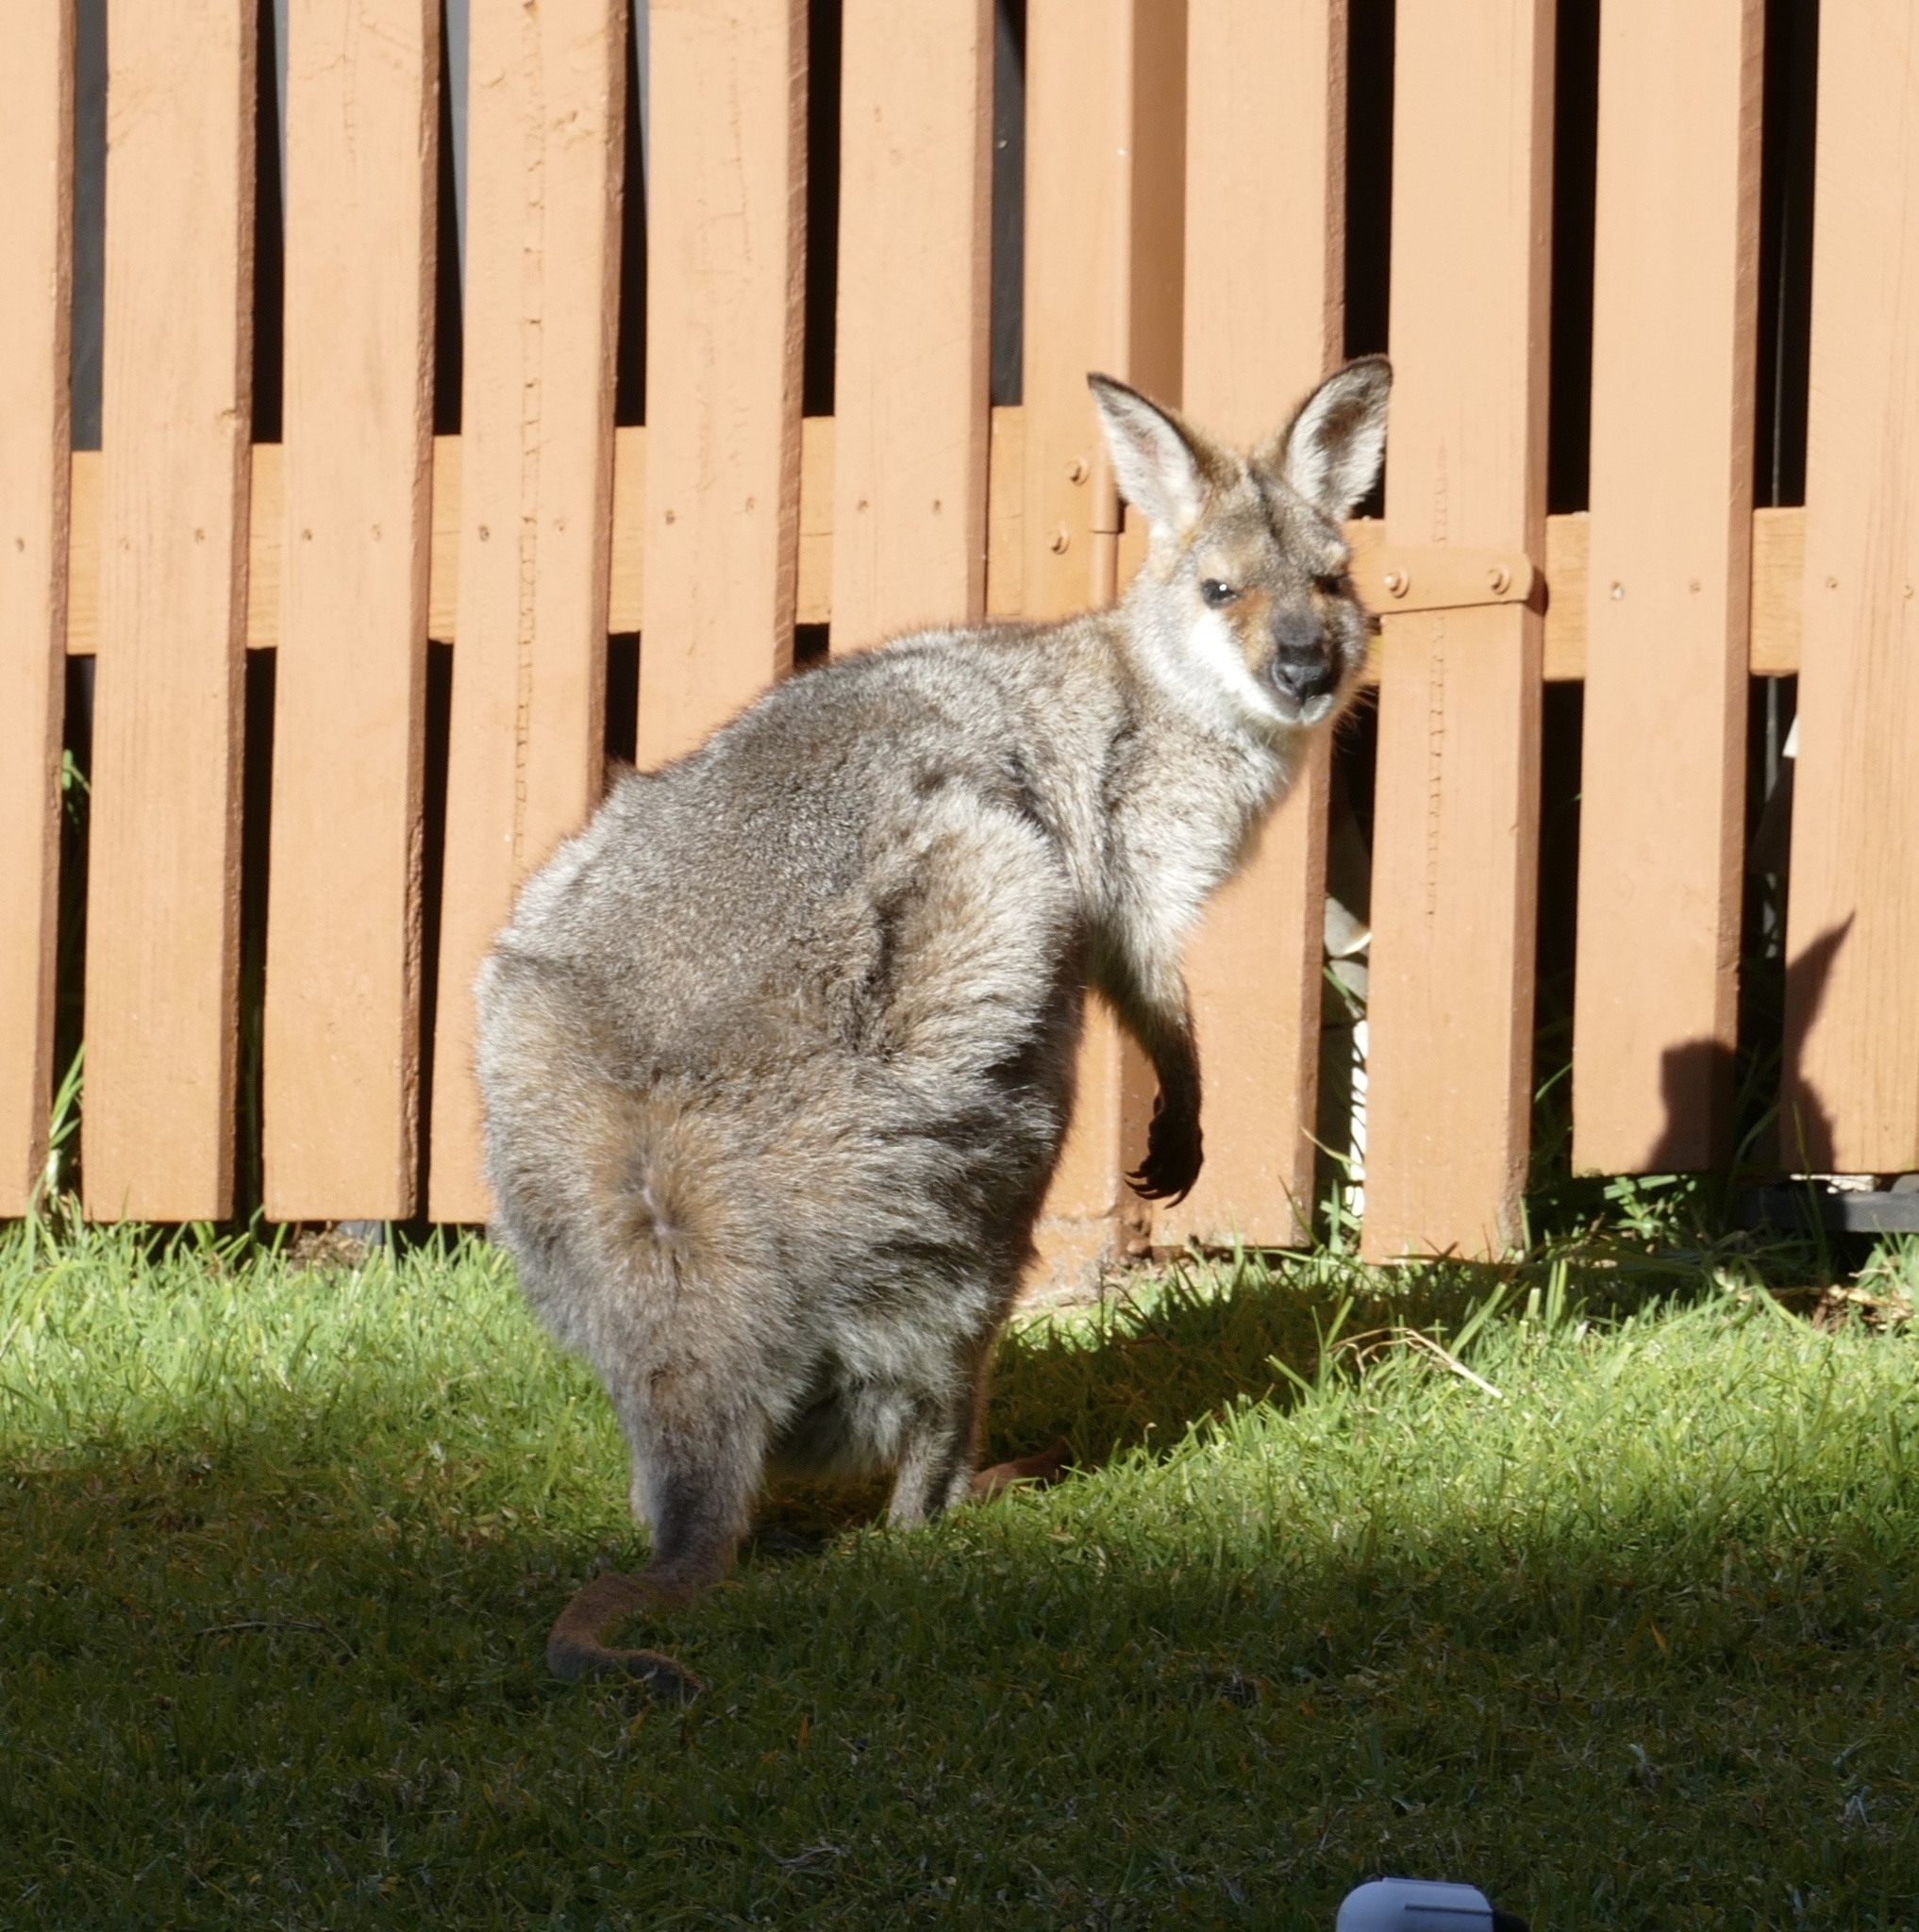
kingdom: Animalia
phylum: Chordata
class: Mammalia
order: Diprotodontia
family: Macropodidae
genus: Notamacropus
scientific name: Notamacropus rufogriseus
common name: Red-necked wallaby
